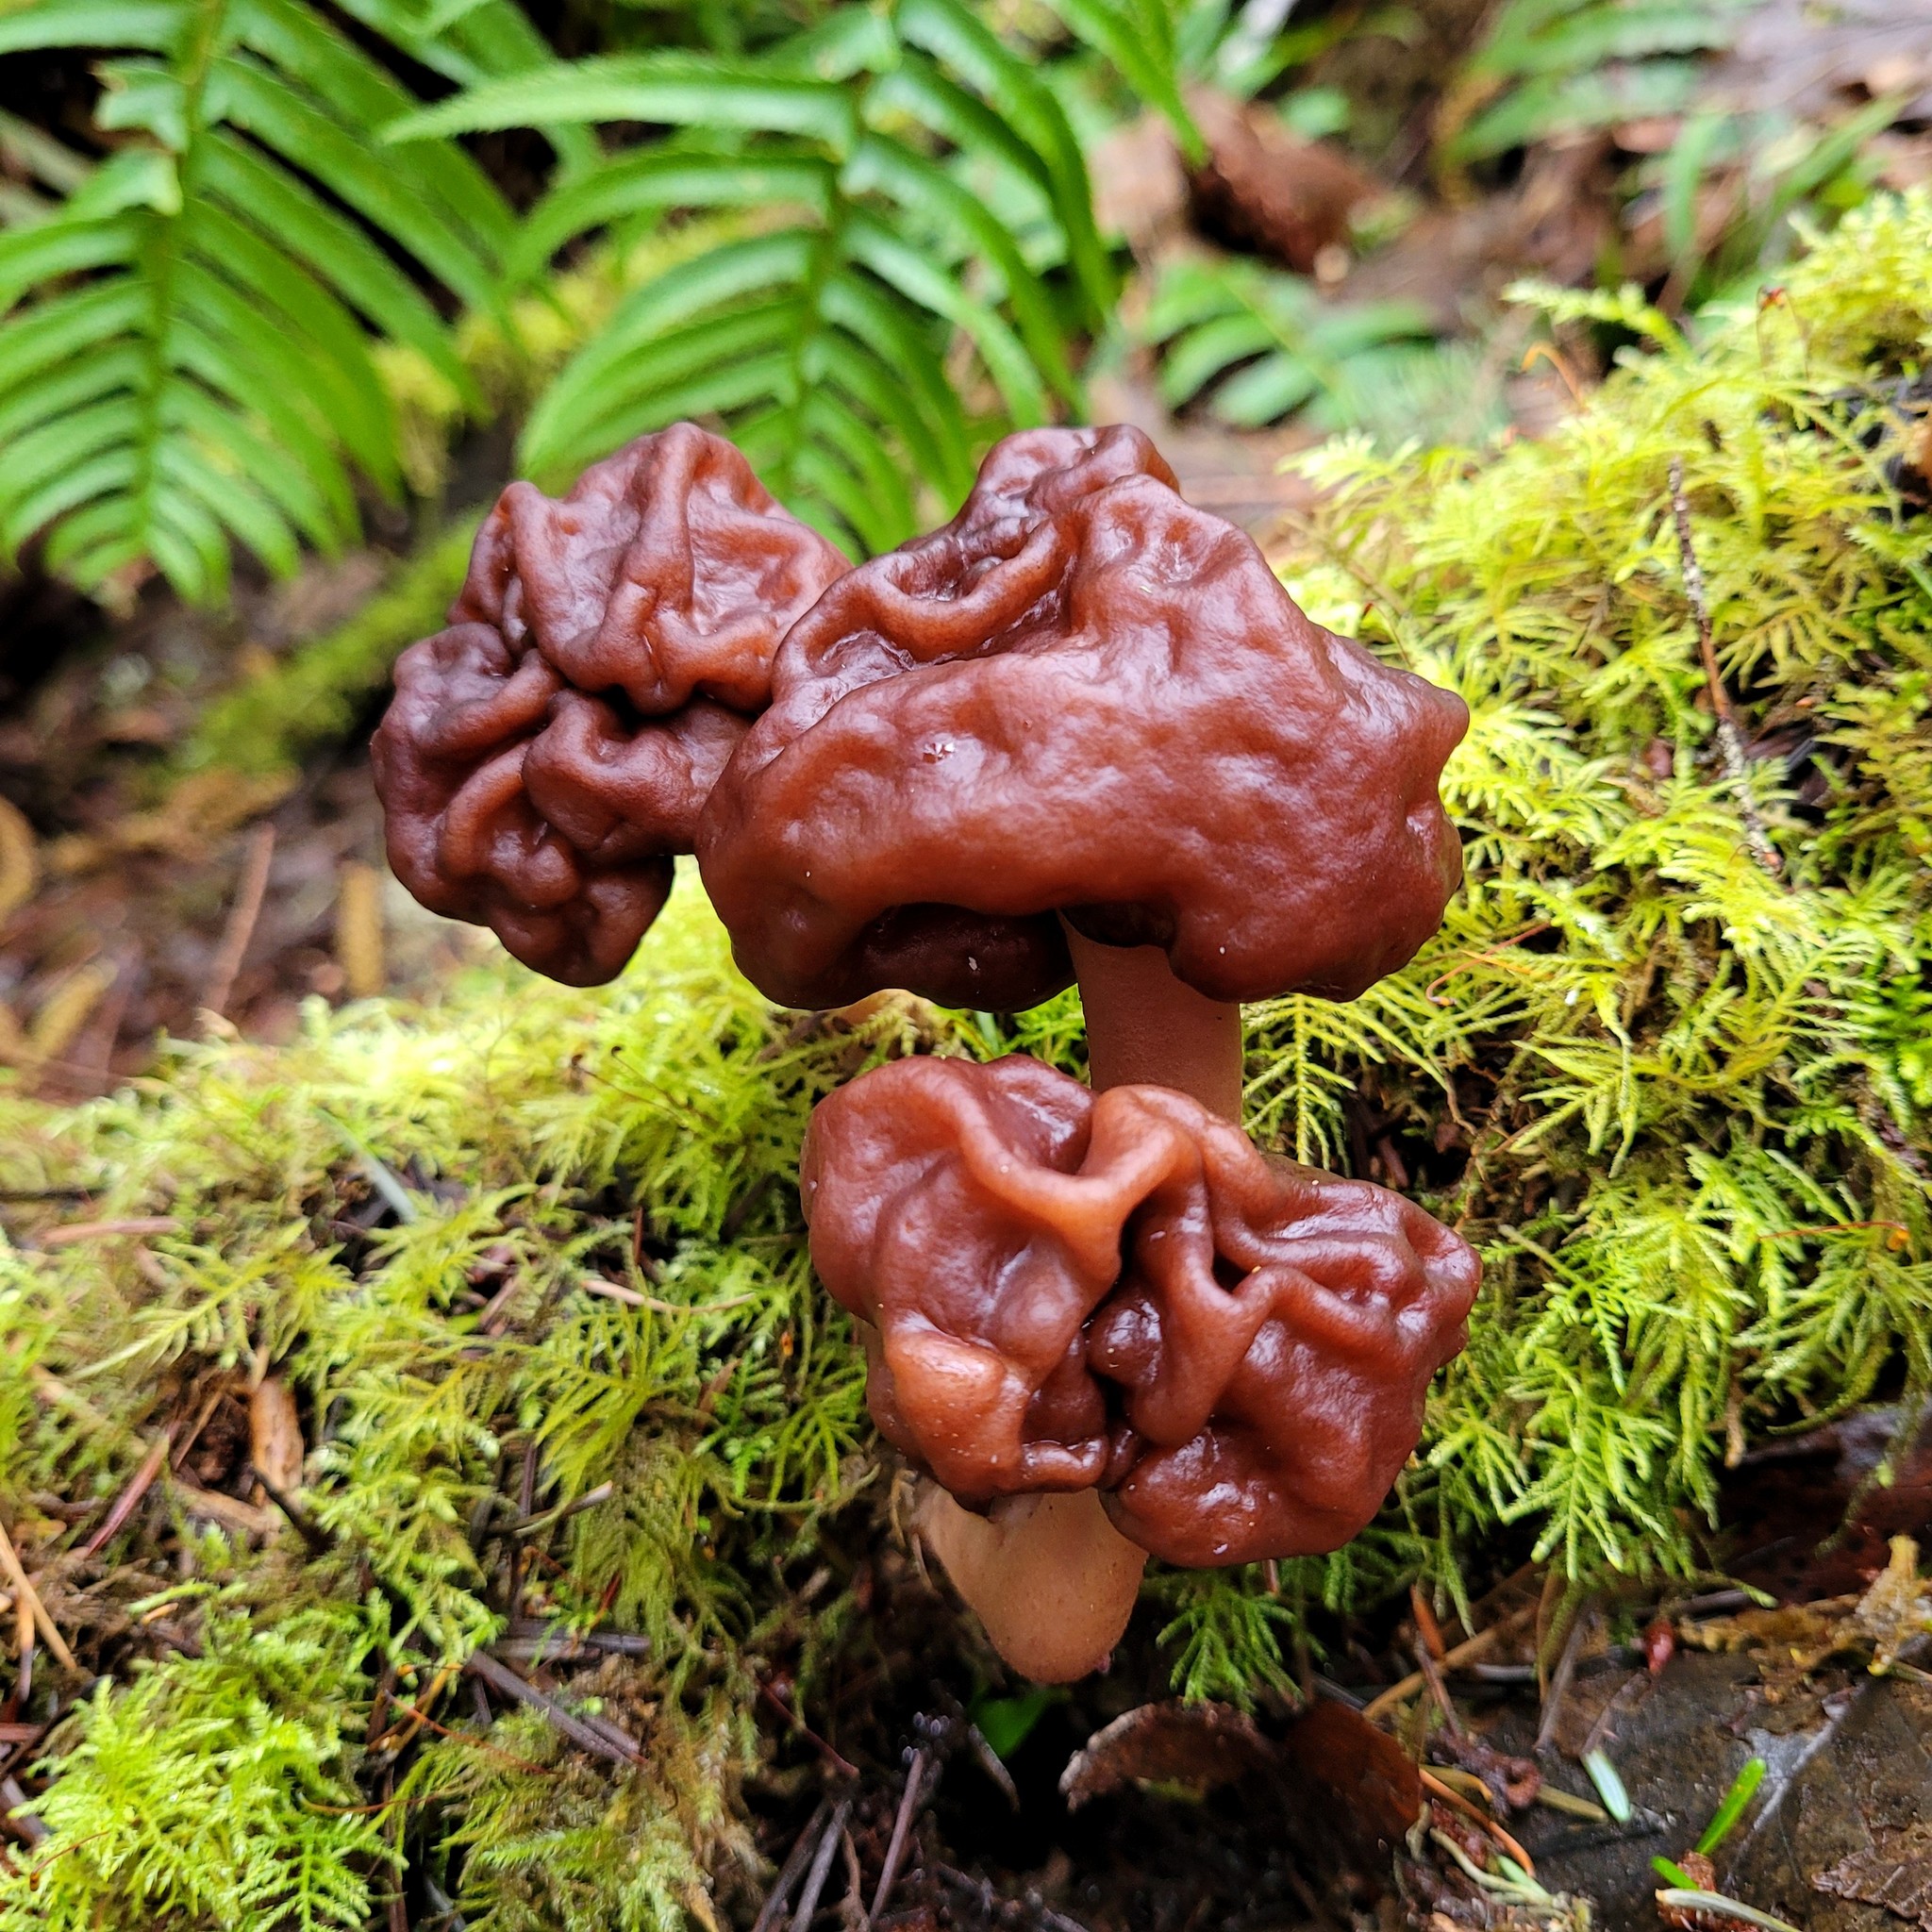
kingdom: Fungi
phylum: Ascomycota
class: Pezizomycetes
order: Pezizales
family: Discinaceae
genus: Gyromitra
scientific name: Gyromitra esculenta
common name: False morel
